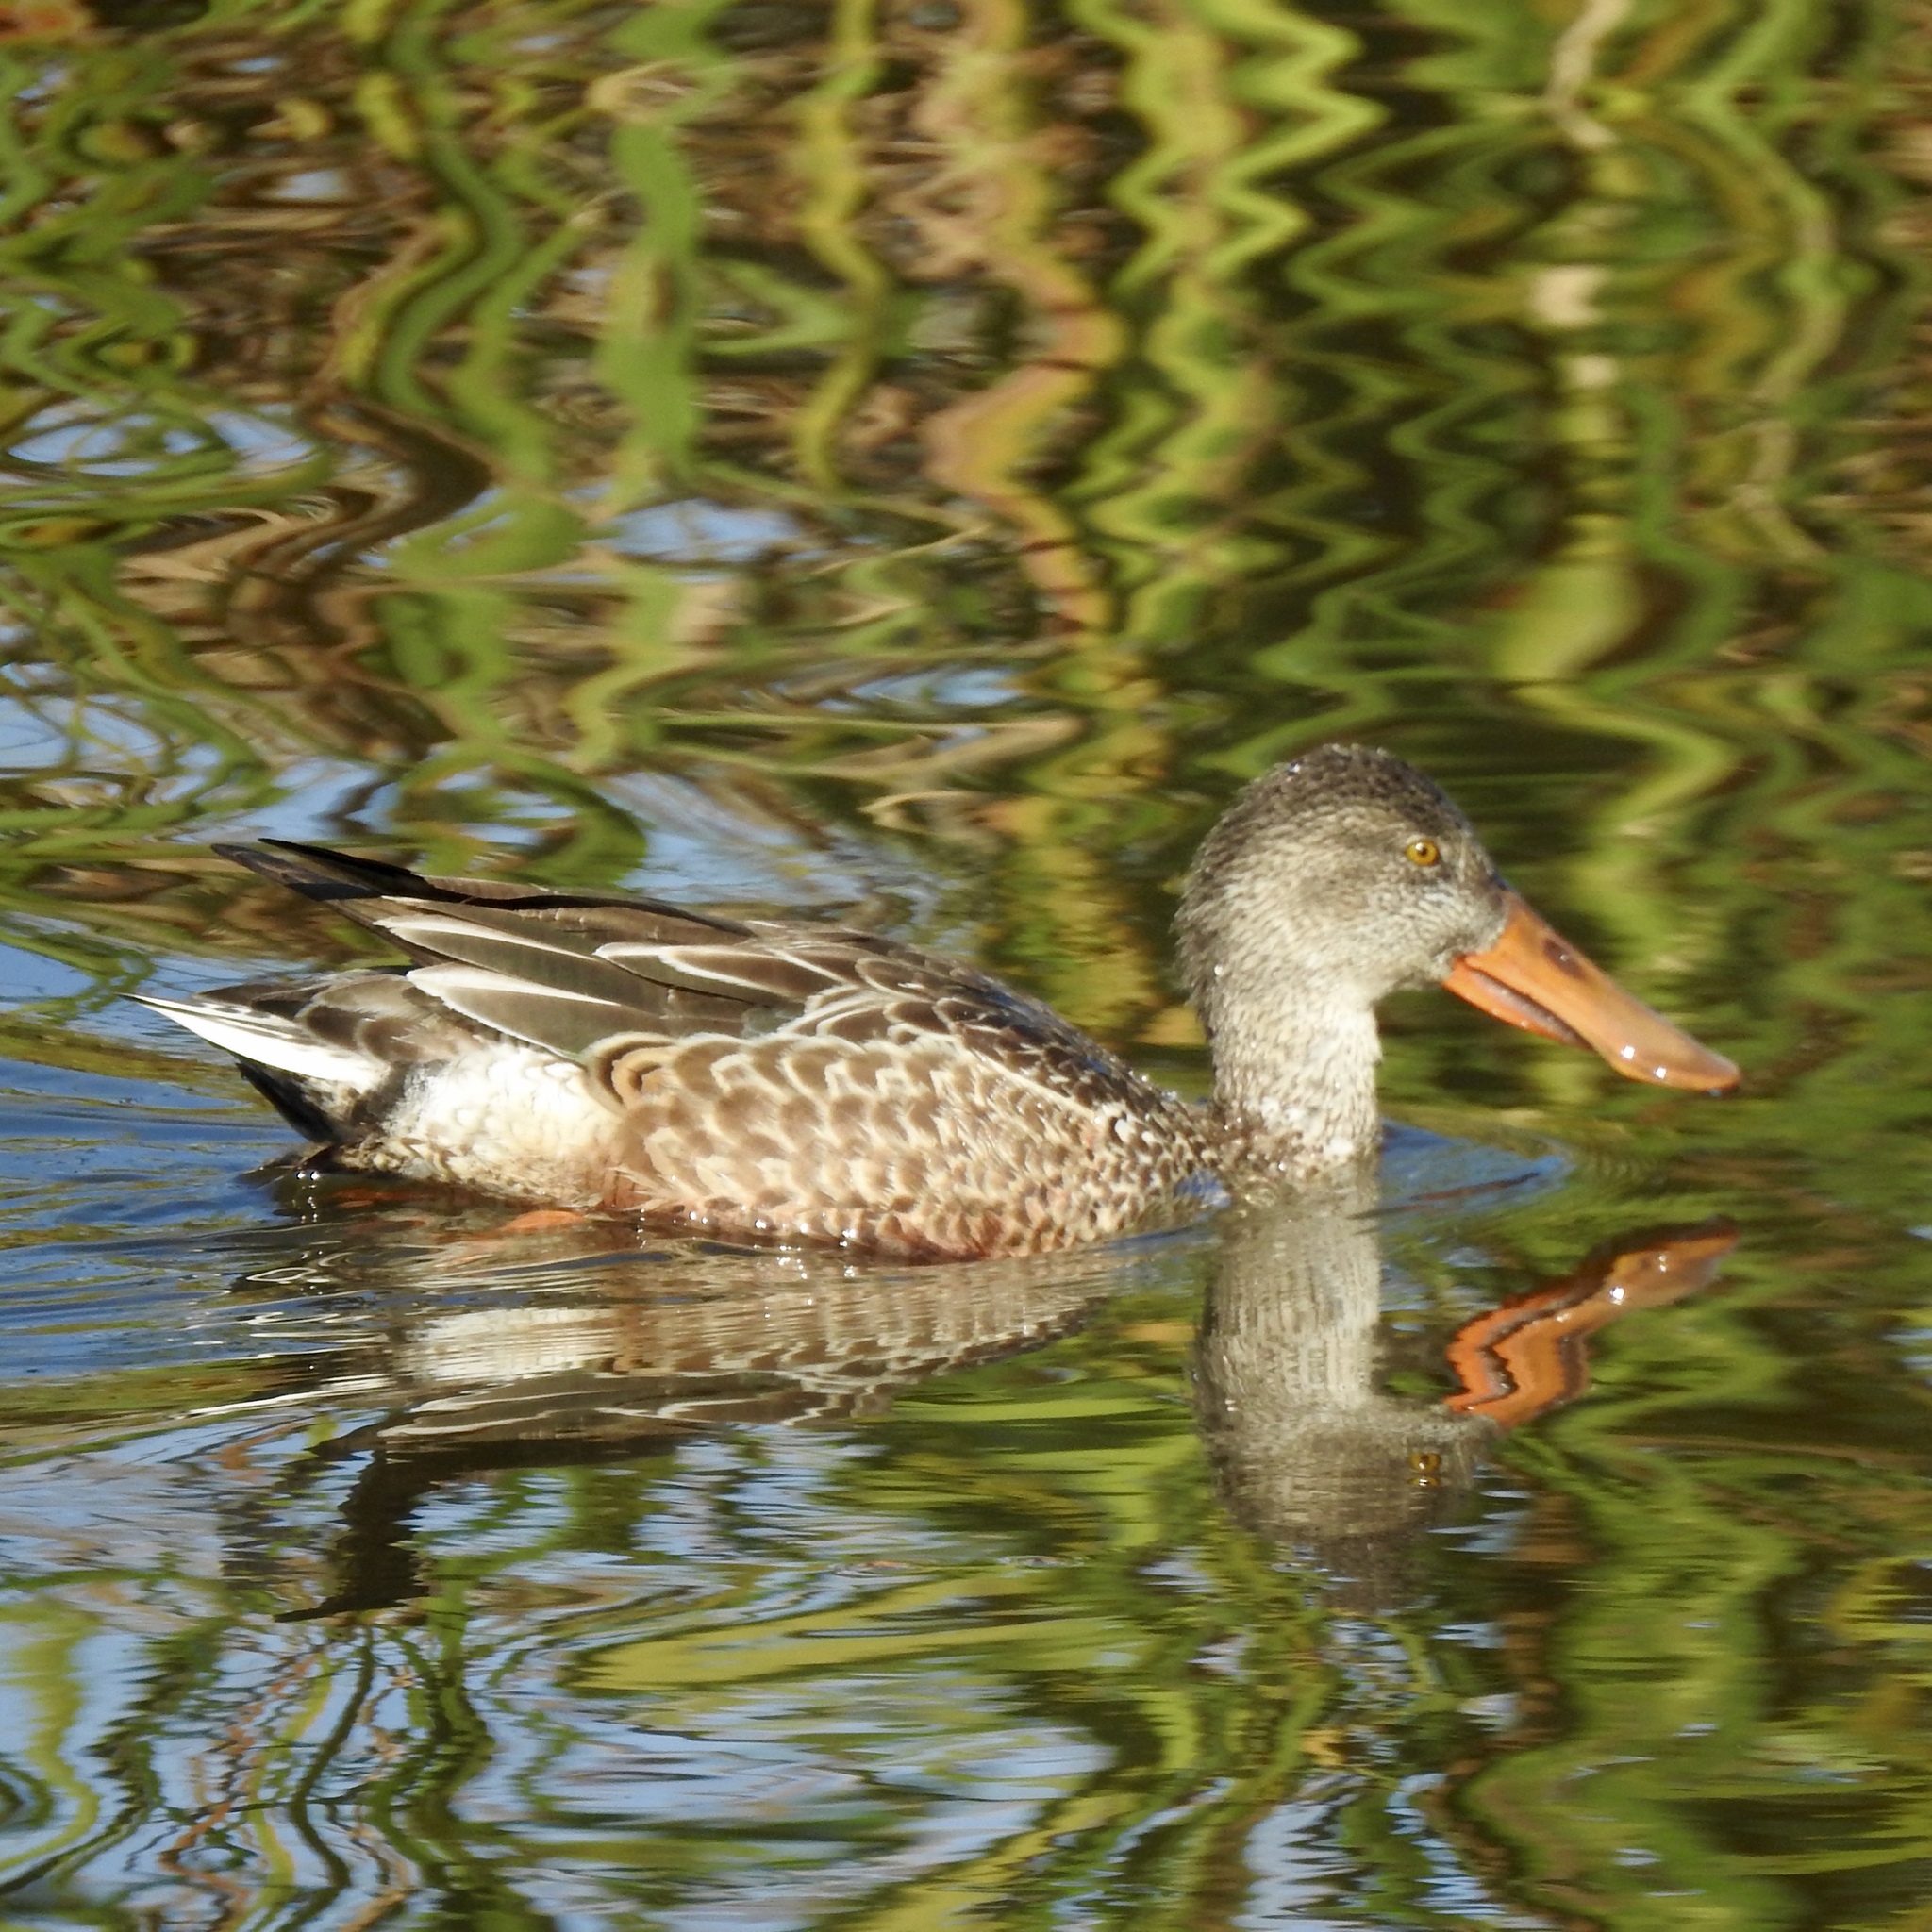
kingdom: Animalia
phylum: Chordata
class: Aves
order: Anseriformes
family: Anatidae
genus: Spatula
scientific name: Spatula clypeata
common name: Northern shoveler
